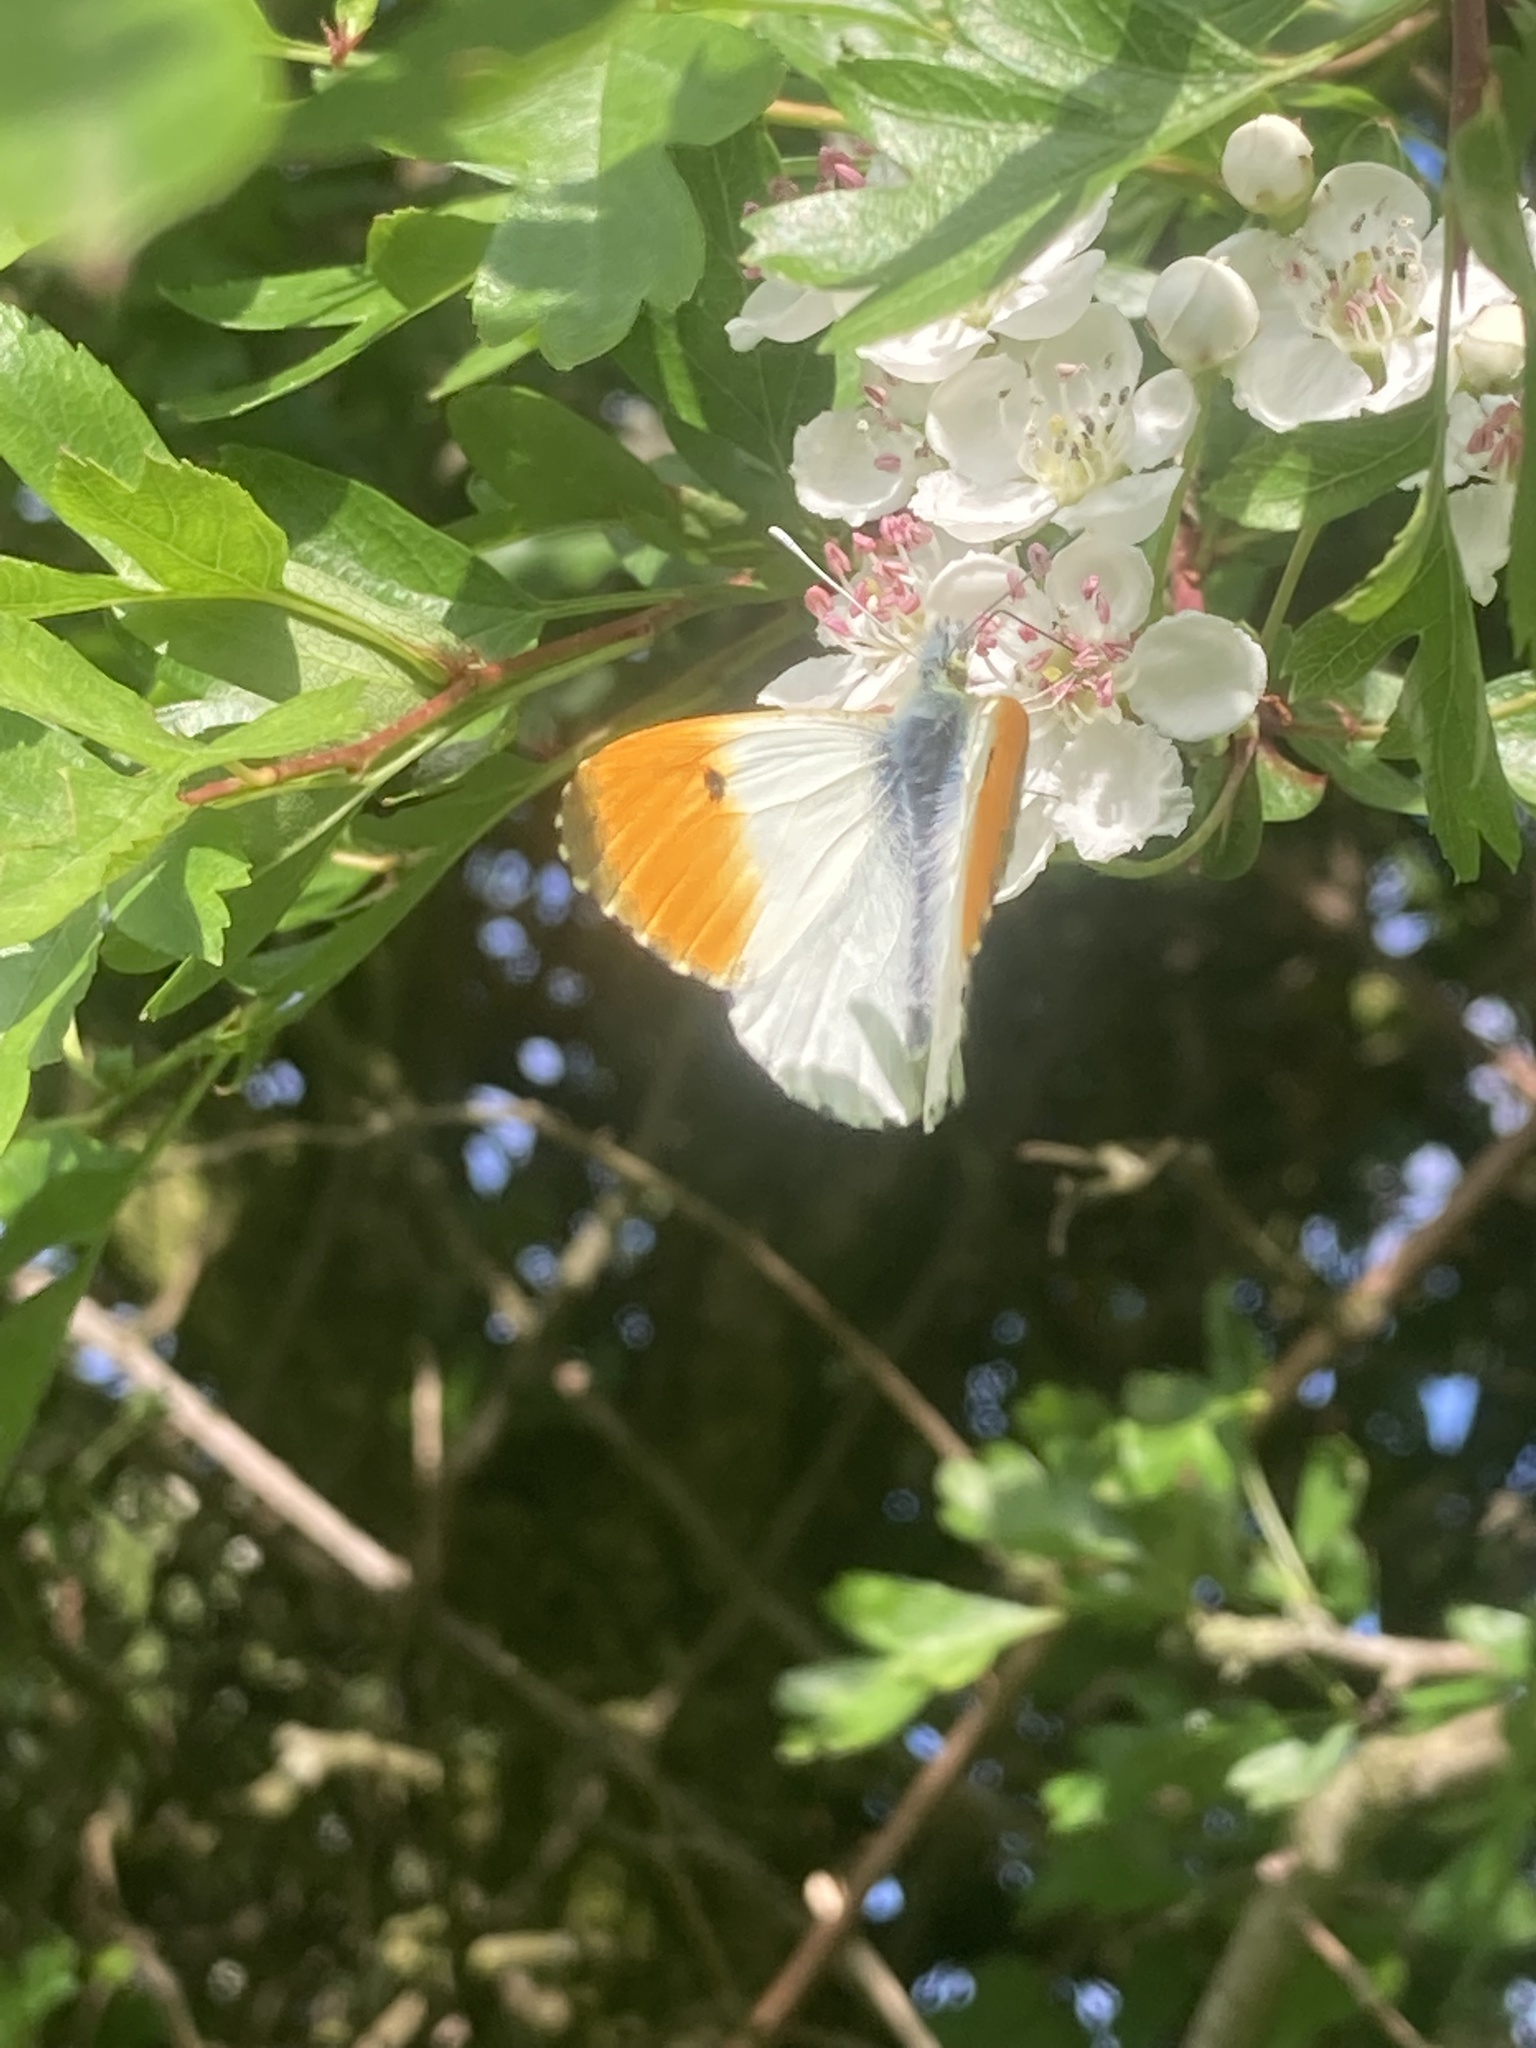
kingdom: Animalia
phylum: Arthropoda
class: Insecta
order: Lepidoptera
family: Pieridae
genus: Anthocharis
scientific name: Anthocharis cardamines
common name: Orange-tip
